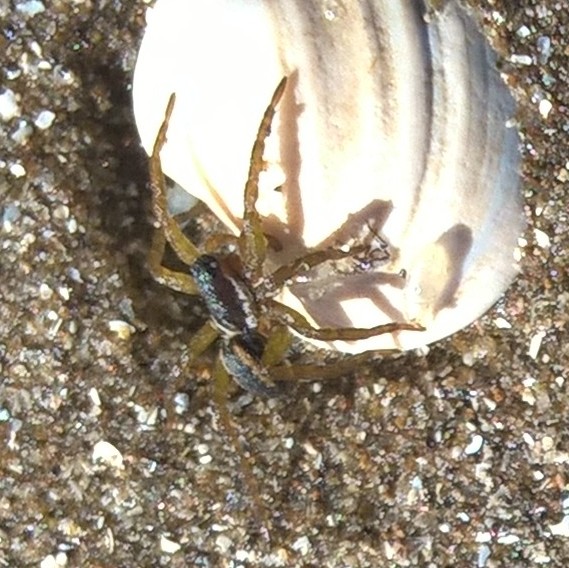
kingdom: Animalia
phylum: Arthropoda
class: Arachnida
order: Araneae
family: Lycosidae
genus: Diapontia
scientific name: Diapontia uruguayensis
